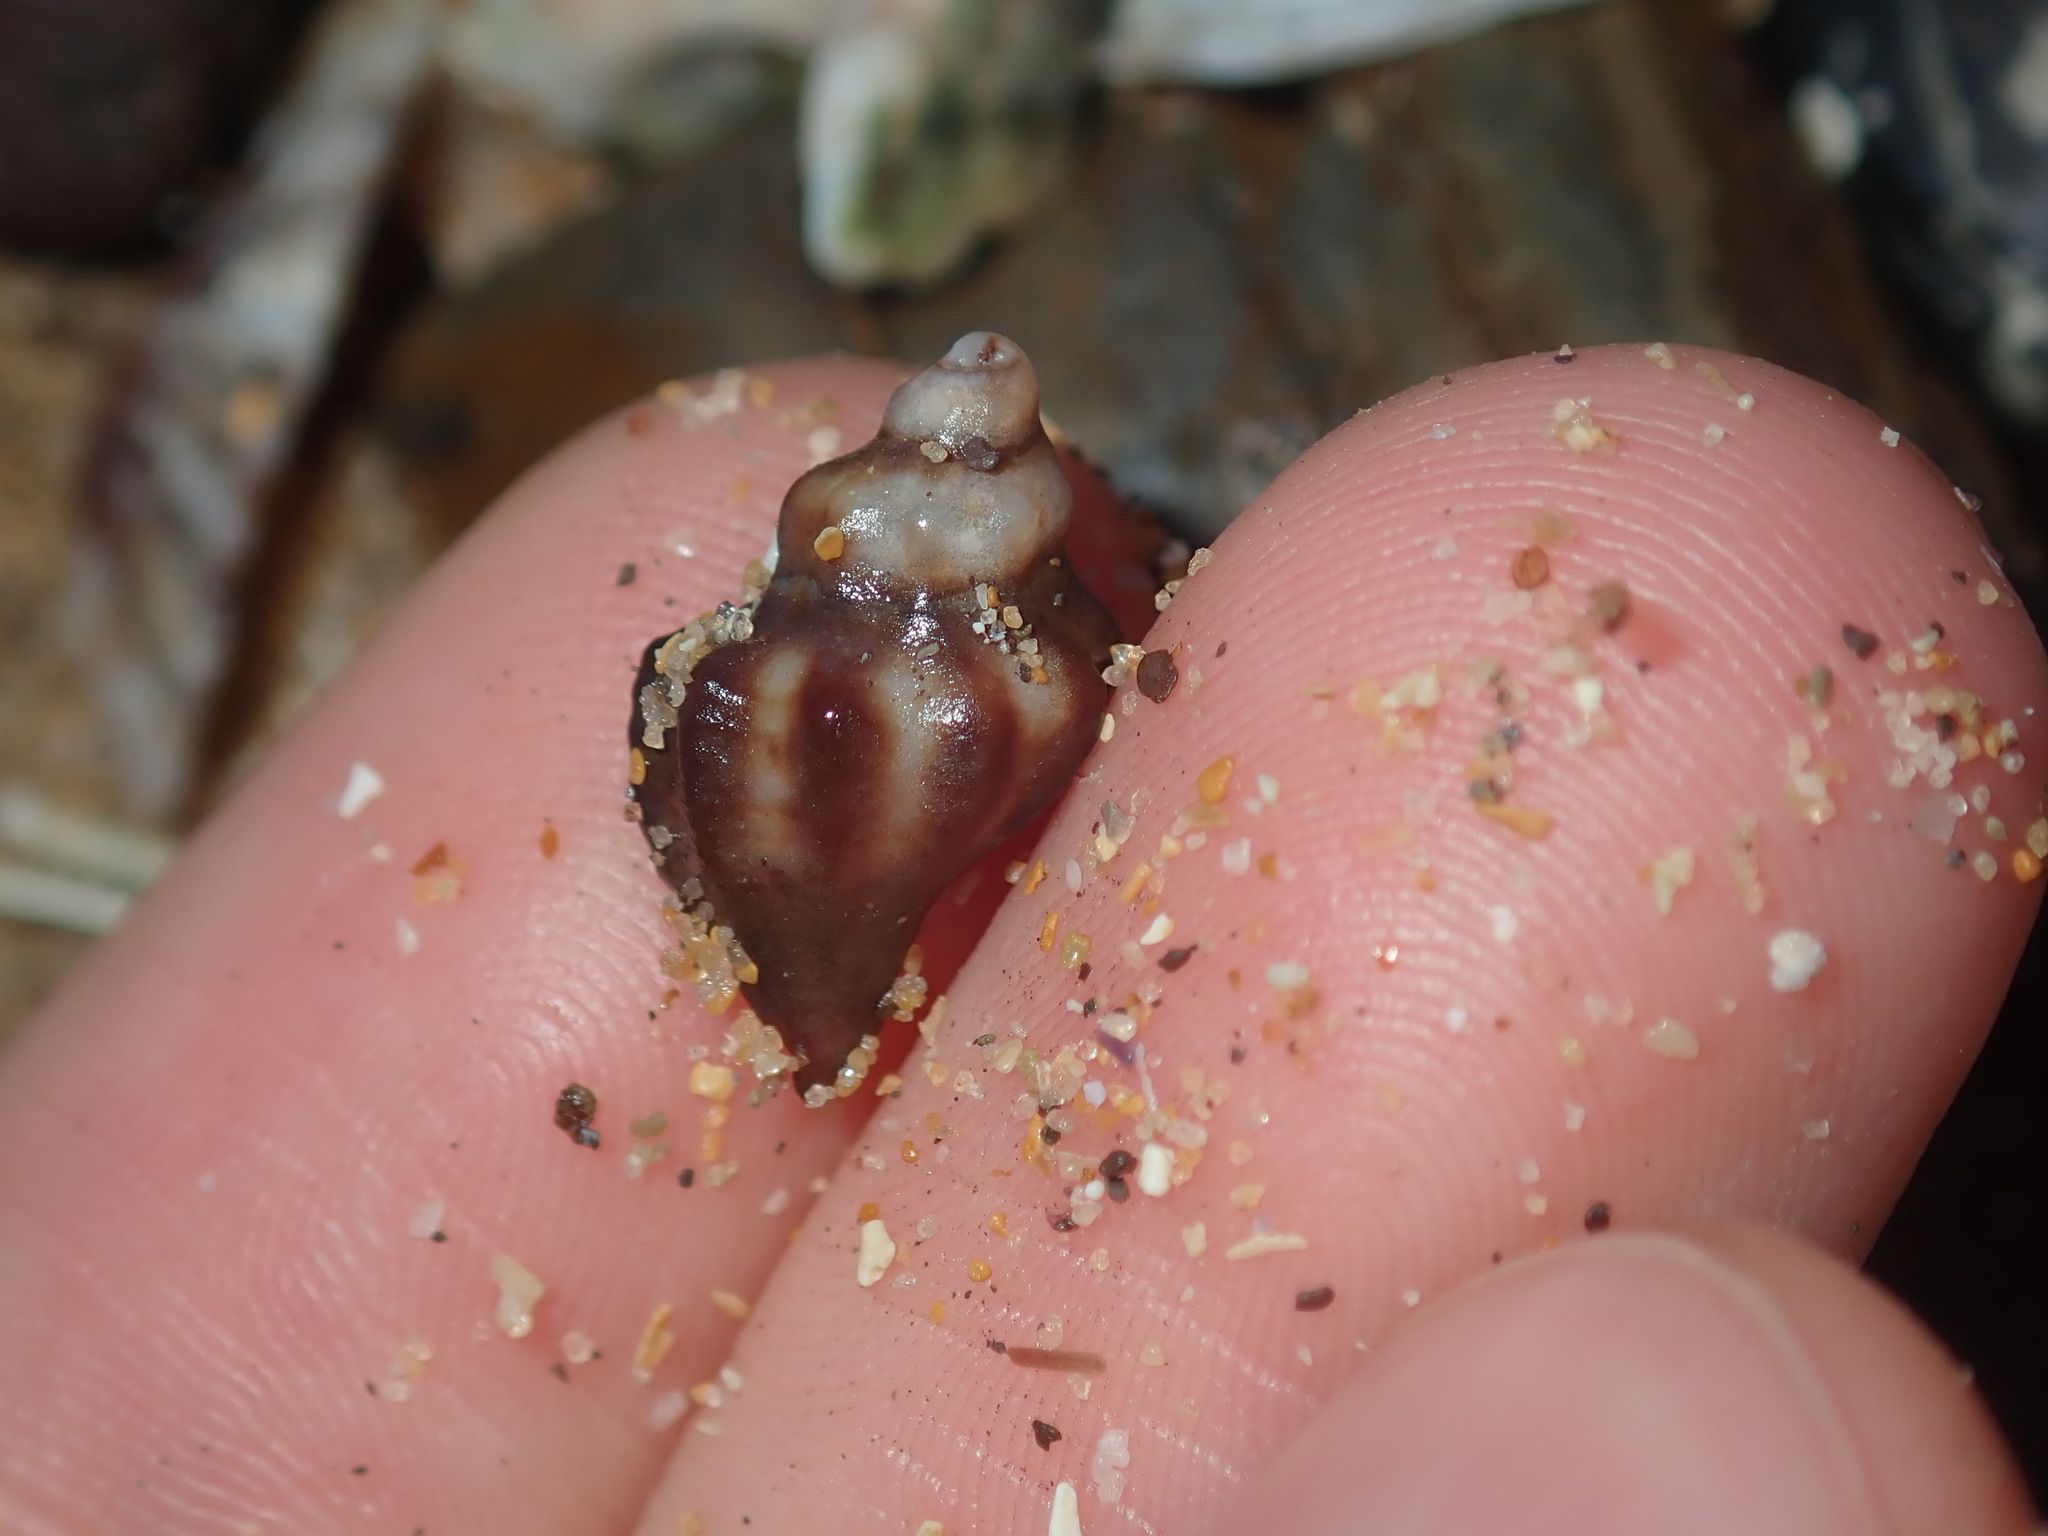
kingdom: Animalia
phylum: Mollusca
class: Gastropoda
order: Neogastropoda
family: Muricidae
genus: Bedeva
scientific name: Bedeva paivae
